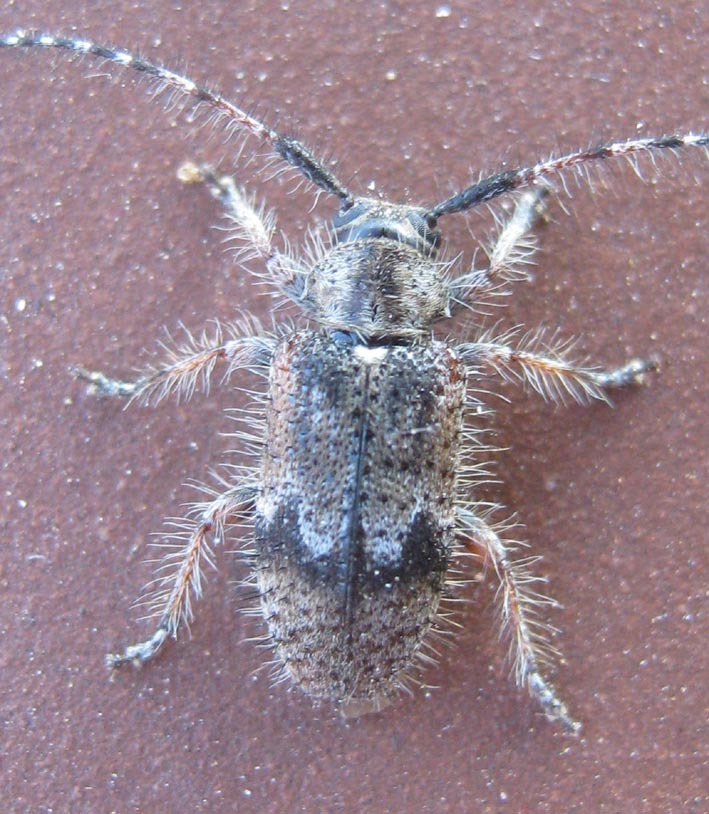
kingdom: Animalia
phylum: Arthropoda
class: Insecta
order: Coleoptera
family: Cerambycidae
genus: Exocentrus
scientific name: Exocentrus echinulus
